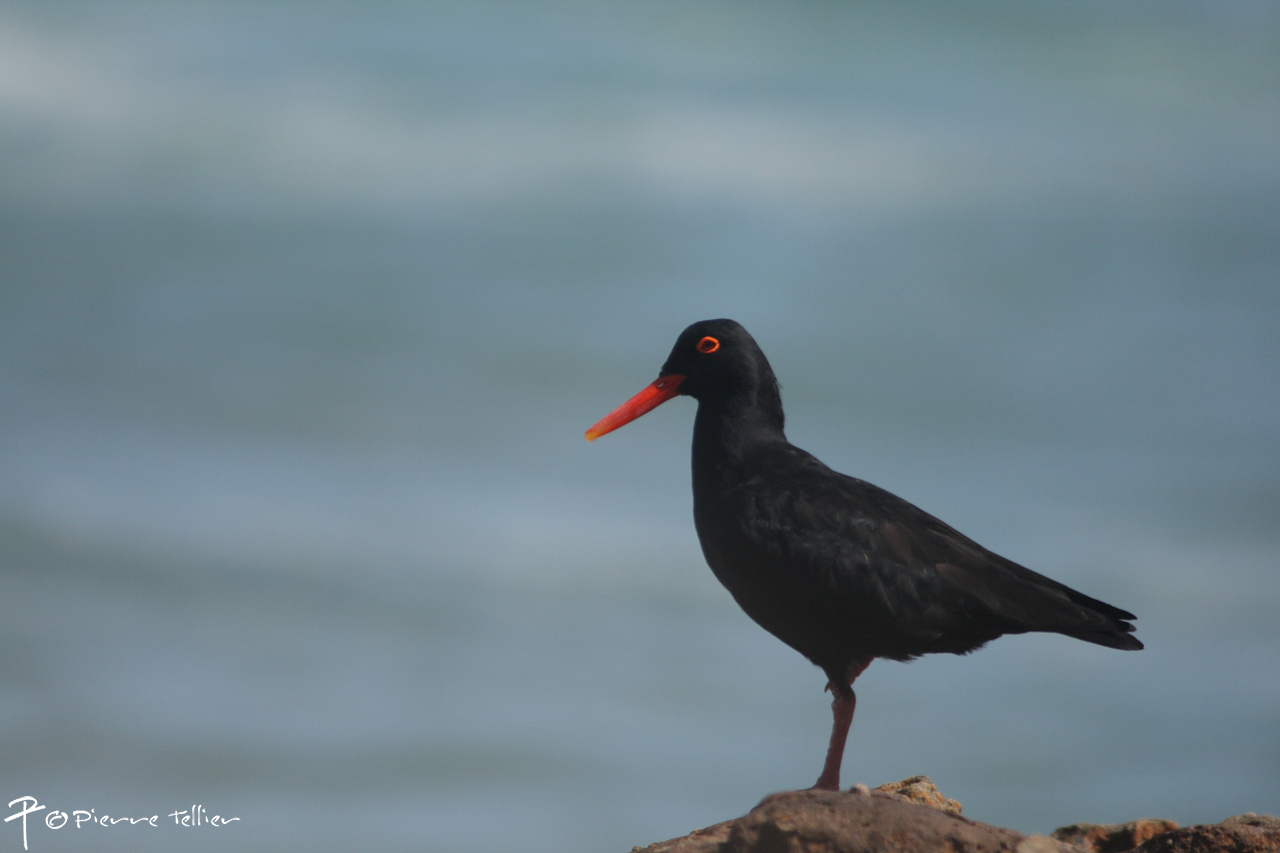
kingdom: Animalia
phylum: Chordata
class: Aves
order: Charadriiformes
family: Haematopodidae
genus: Haematopus
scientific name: Haematopus moquini
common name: African oystercatcher
